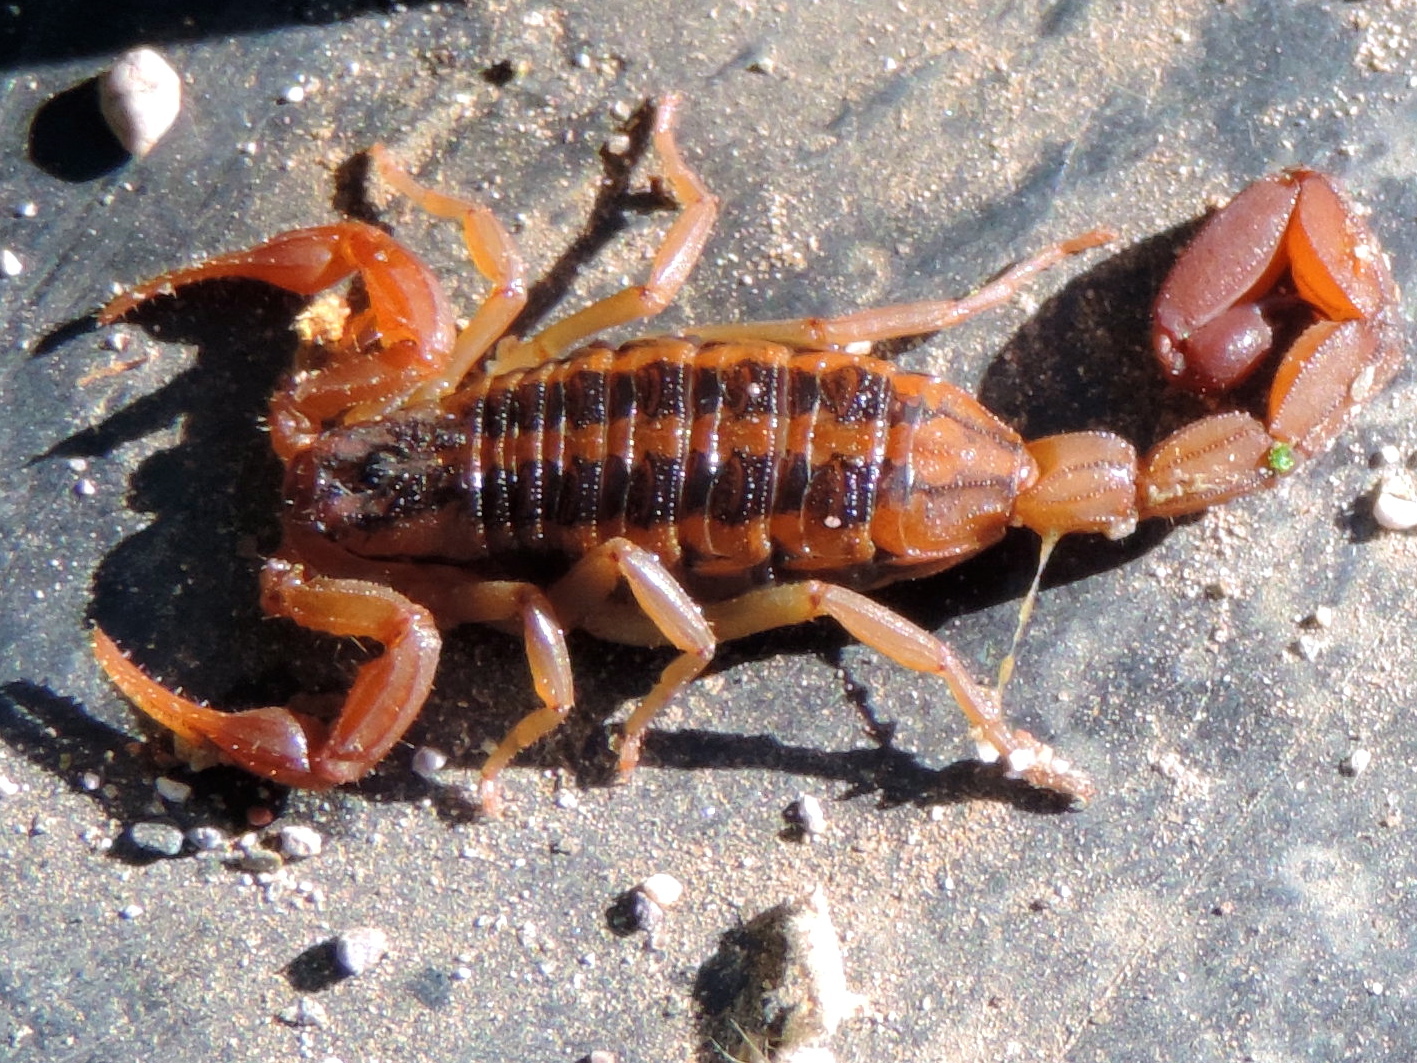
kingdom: Animalia
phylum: Arthropoda
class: Arachnida
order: Scorpiones
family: Buthidae
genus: Centruroides
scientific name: Centruroides baldazoi
